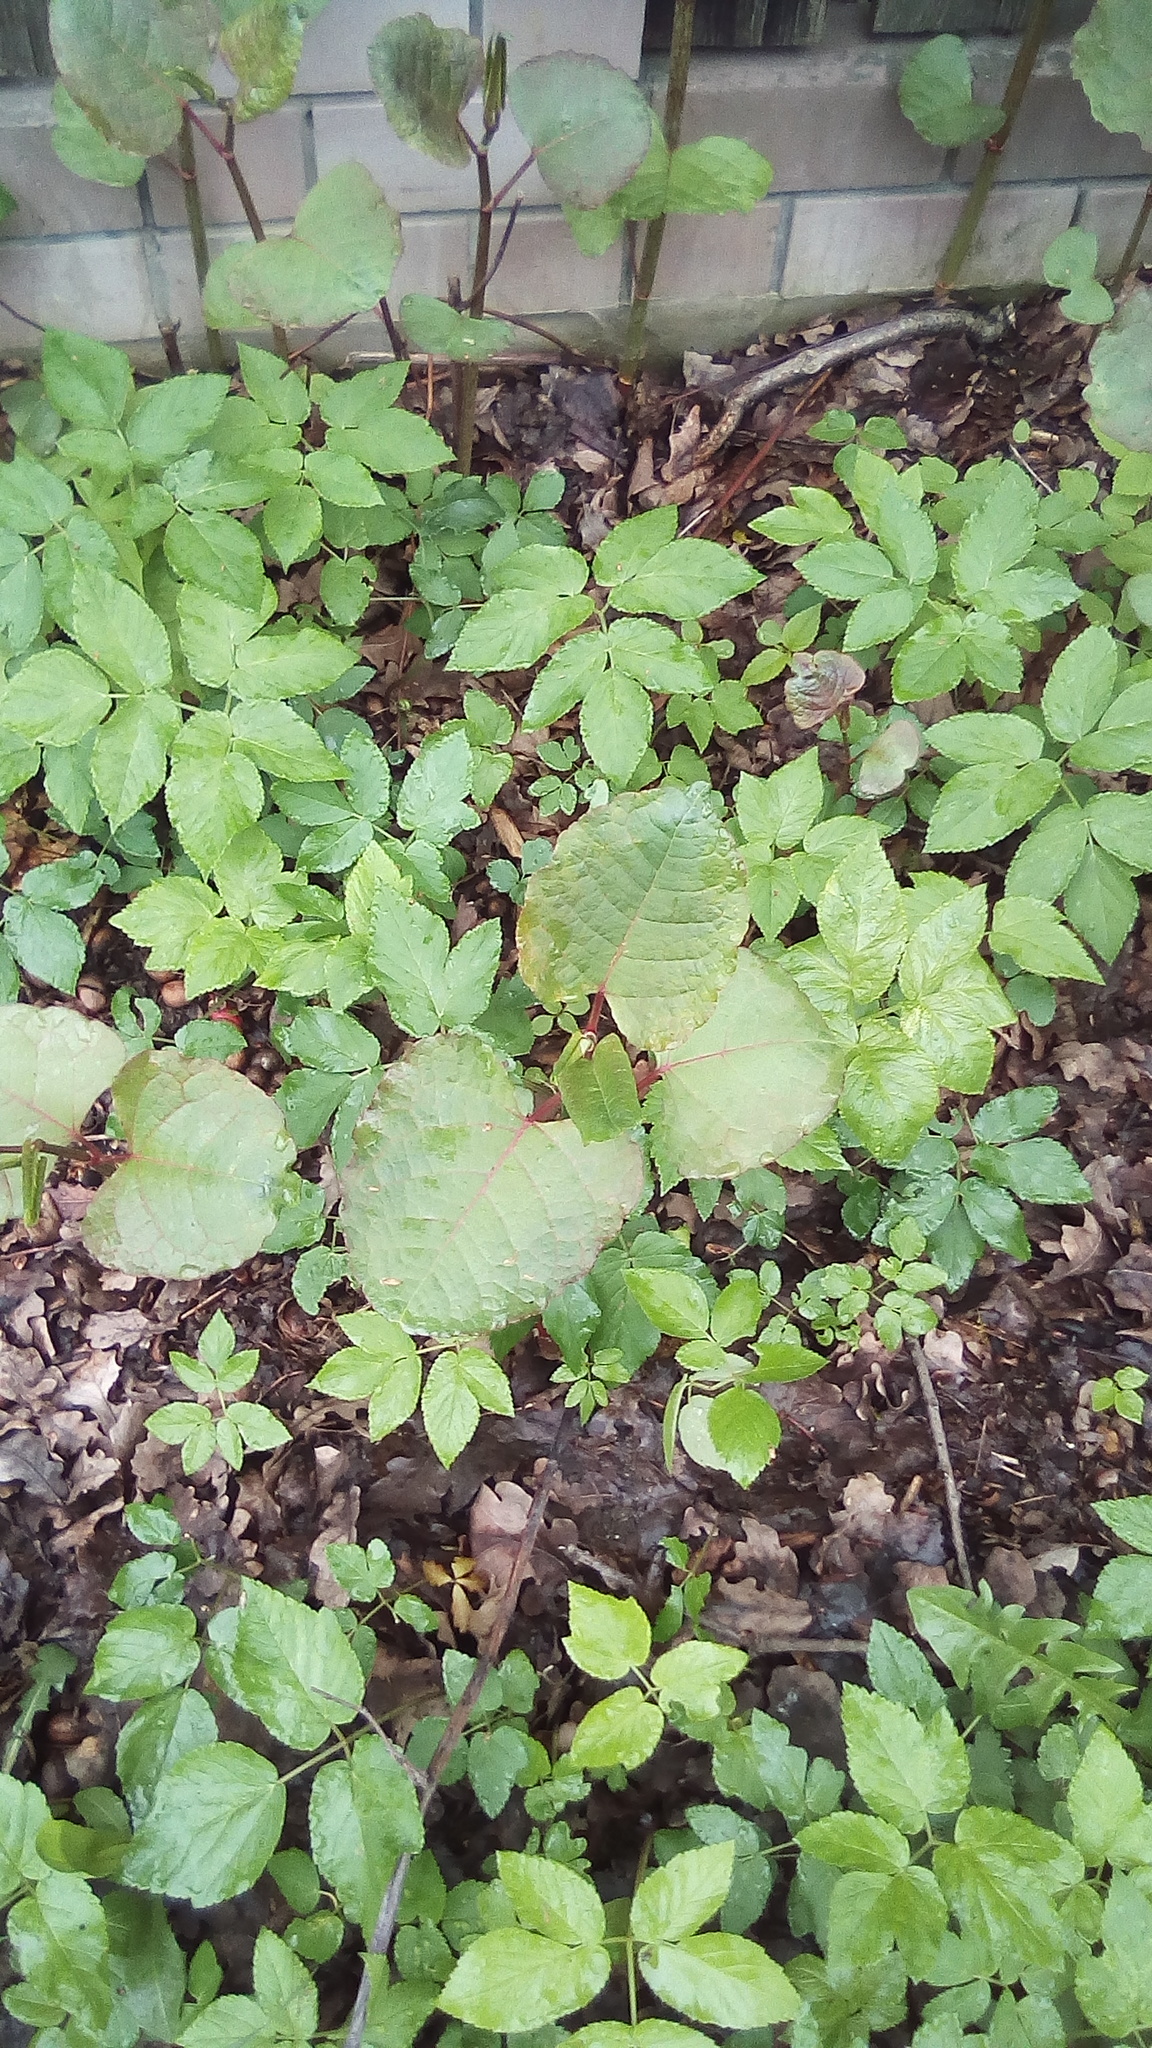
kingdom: Plantae
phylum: Tracheophyta
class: Magnoliopsida
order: Caryophyllales
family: Polygonaceae
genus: Reynoutria
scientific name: Reynoutria bohemica
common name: Bohemian knotweed
